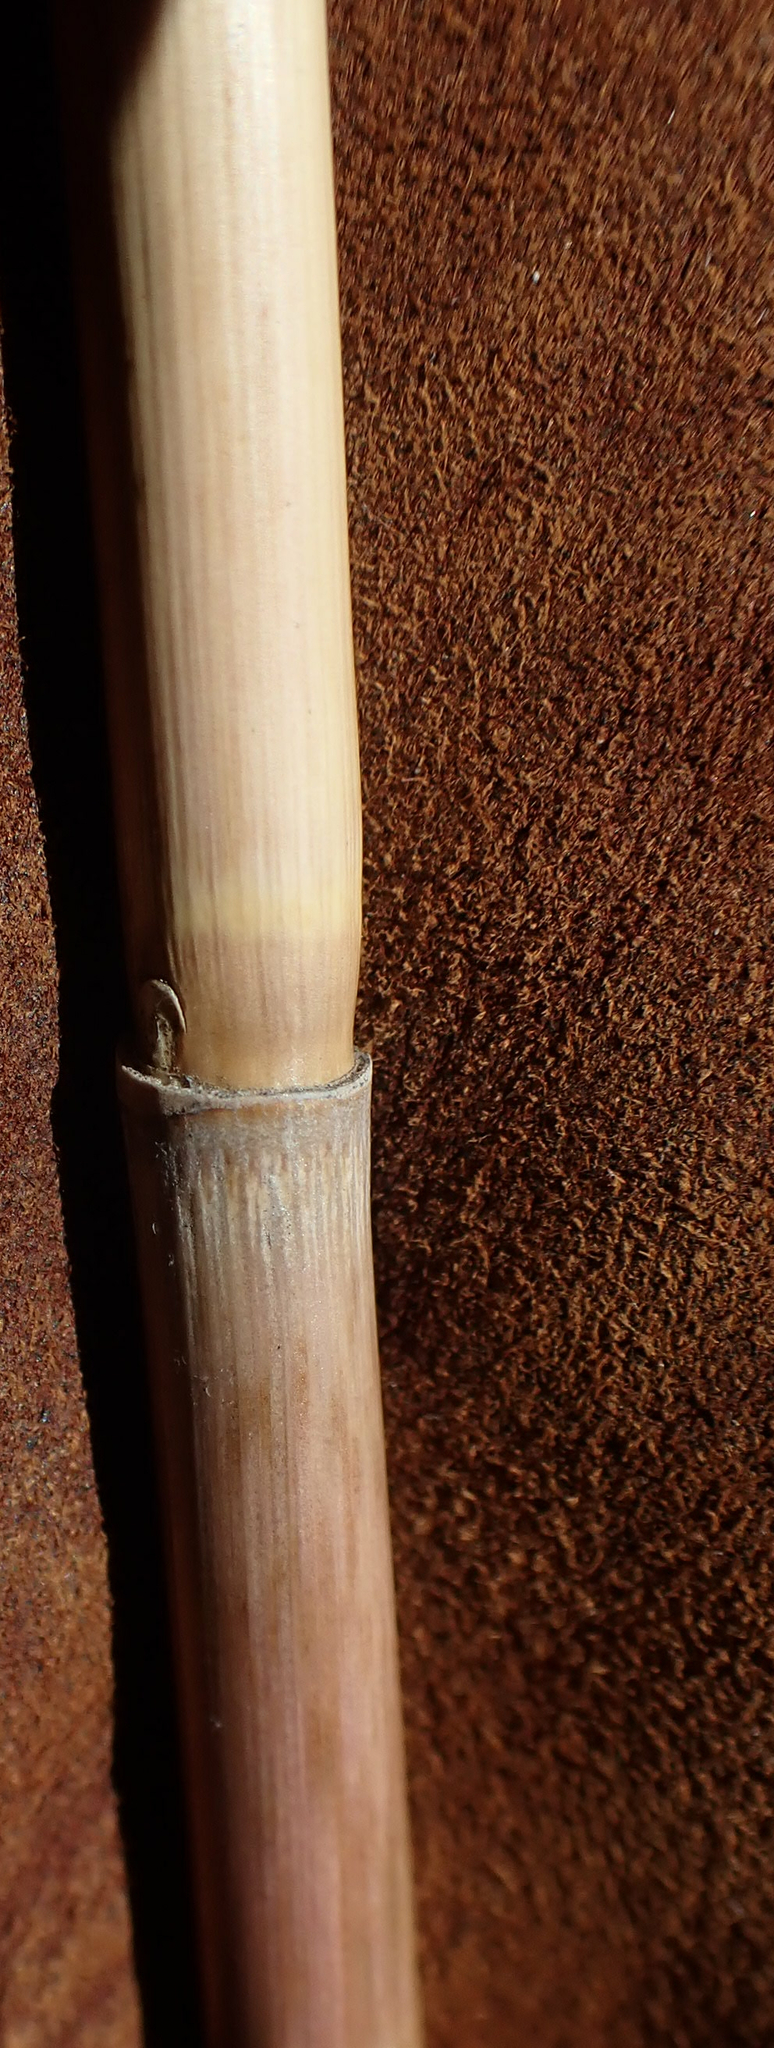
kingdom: Plantae
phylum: Tracheophyta
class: Liliopsida
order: Poales
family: Poaceae
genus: Phragmites
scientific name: Phragmites australis
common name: Common reed
